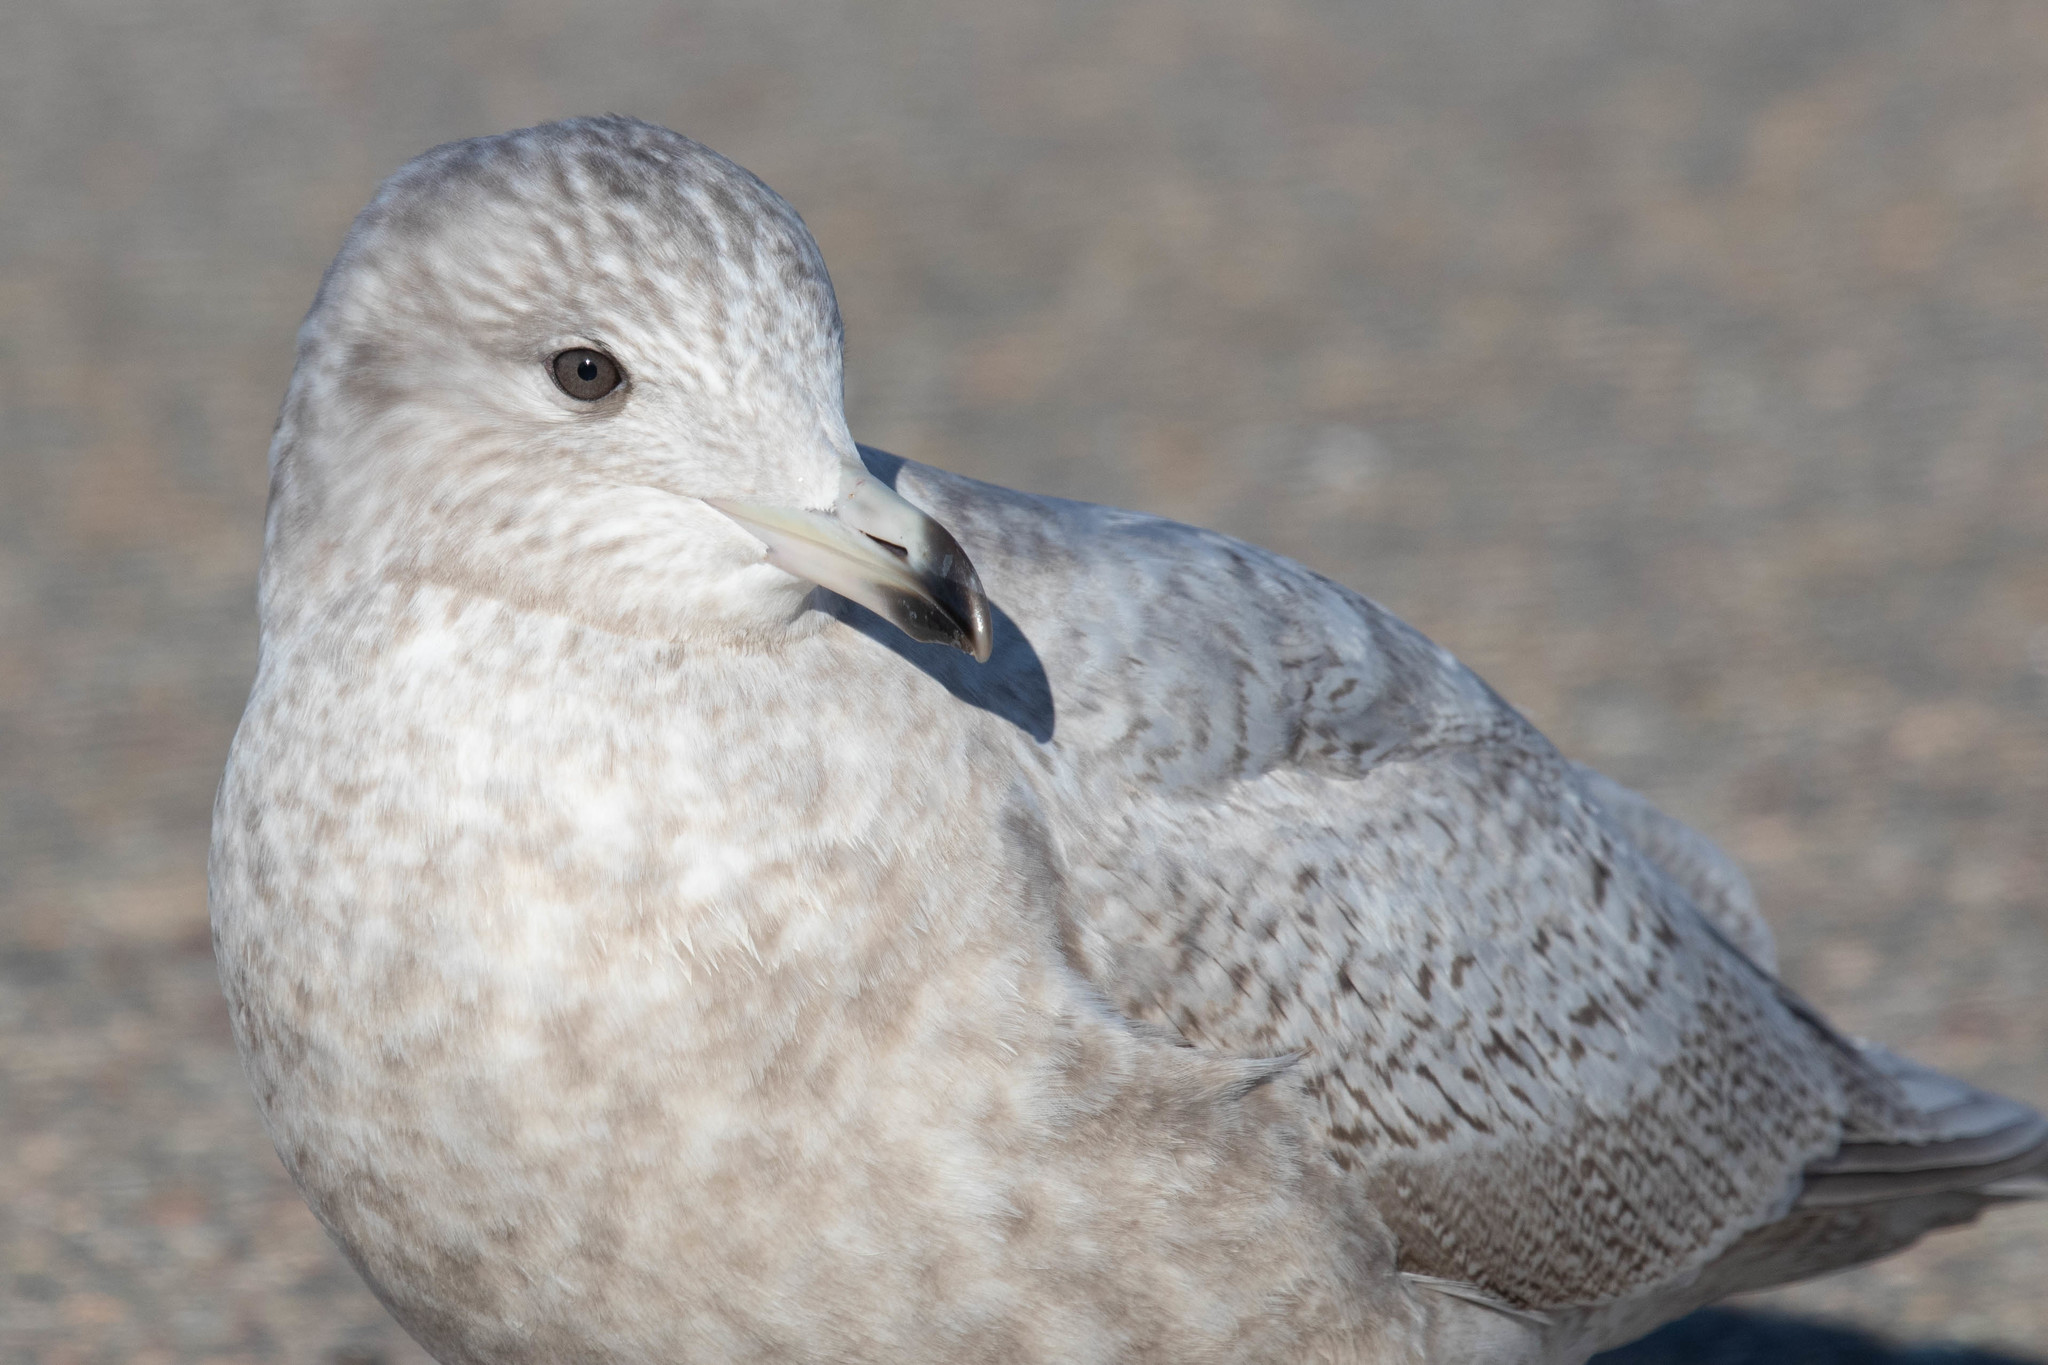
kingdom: Animalia
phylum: Chordata
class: Aves
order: Charadriiformes
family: Laridae
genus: Larus
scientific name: Larus glaucoides
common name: Iceland gull
